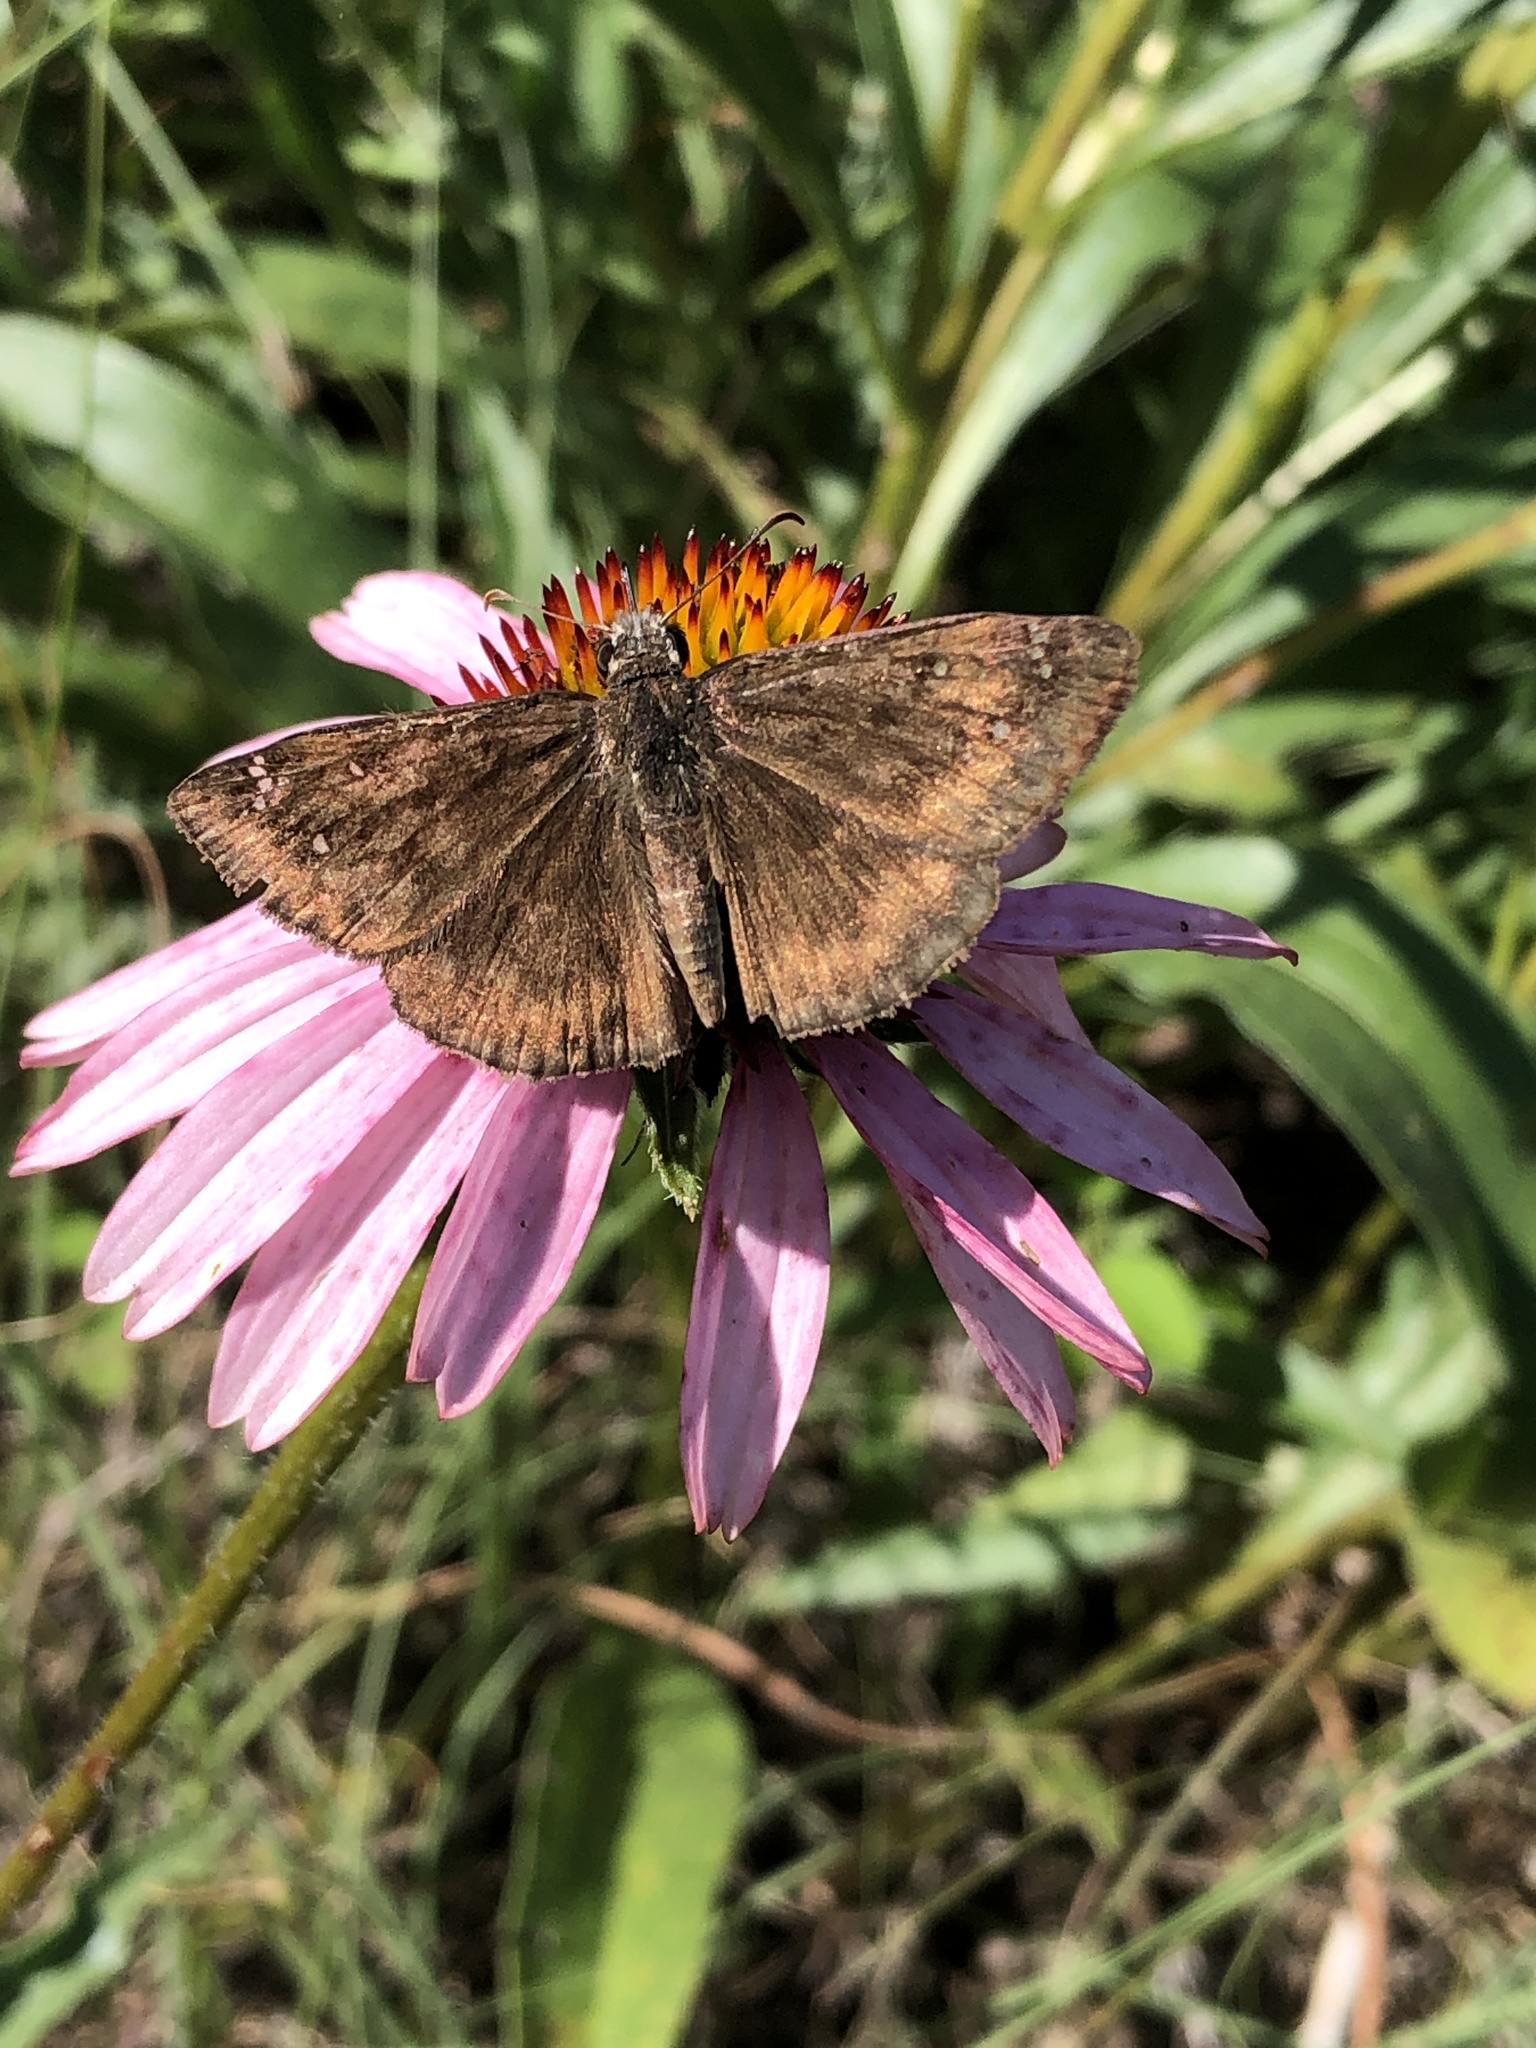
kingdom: Animalia
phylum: Arthropoda
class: Insecta
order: Lepidoptera
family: Hesperiidae
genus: Erynnis
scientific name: Erynnis horatius
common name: Horace's duskywing
